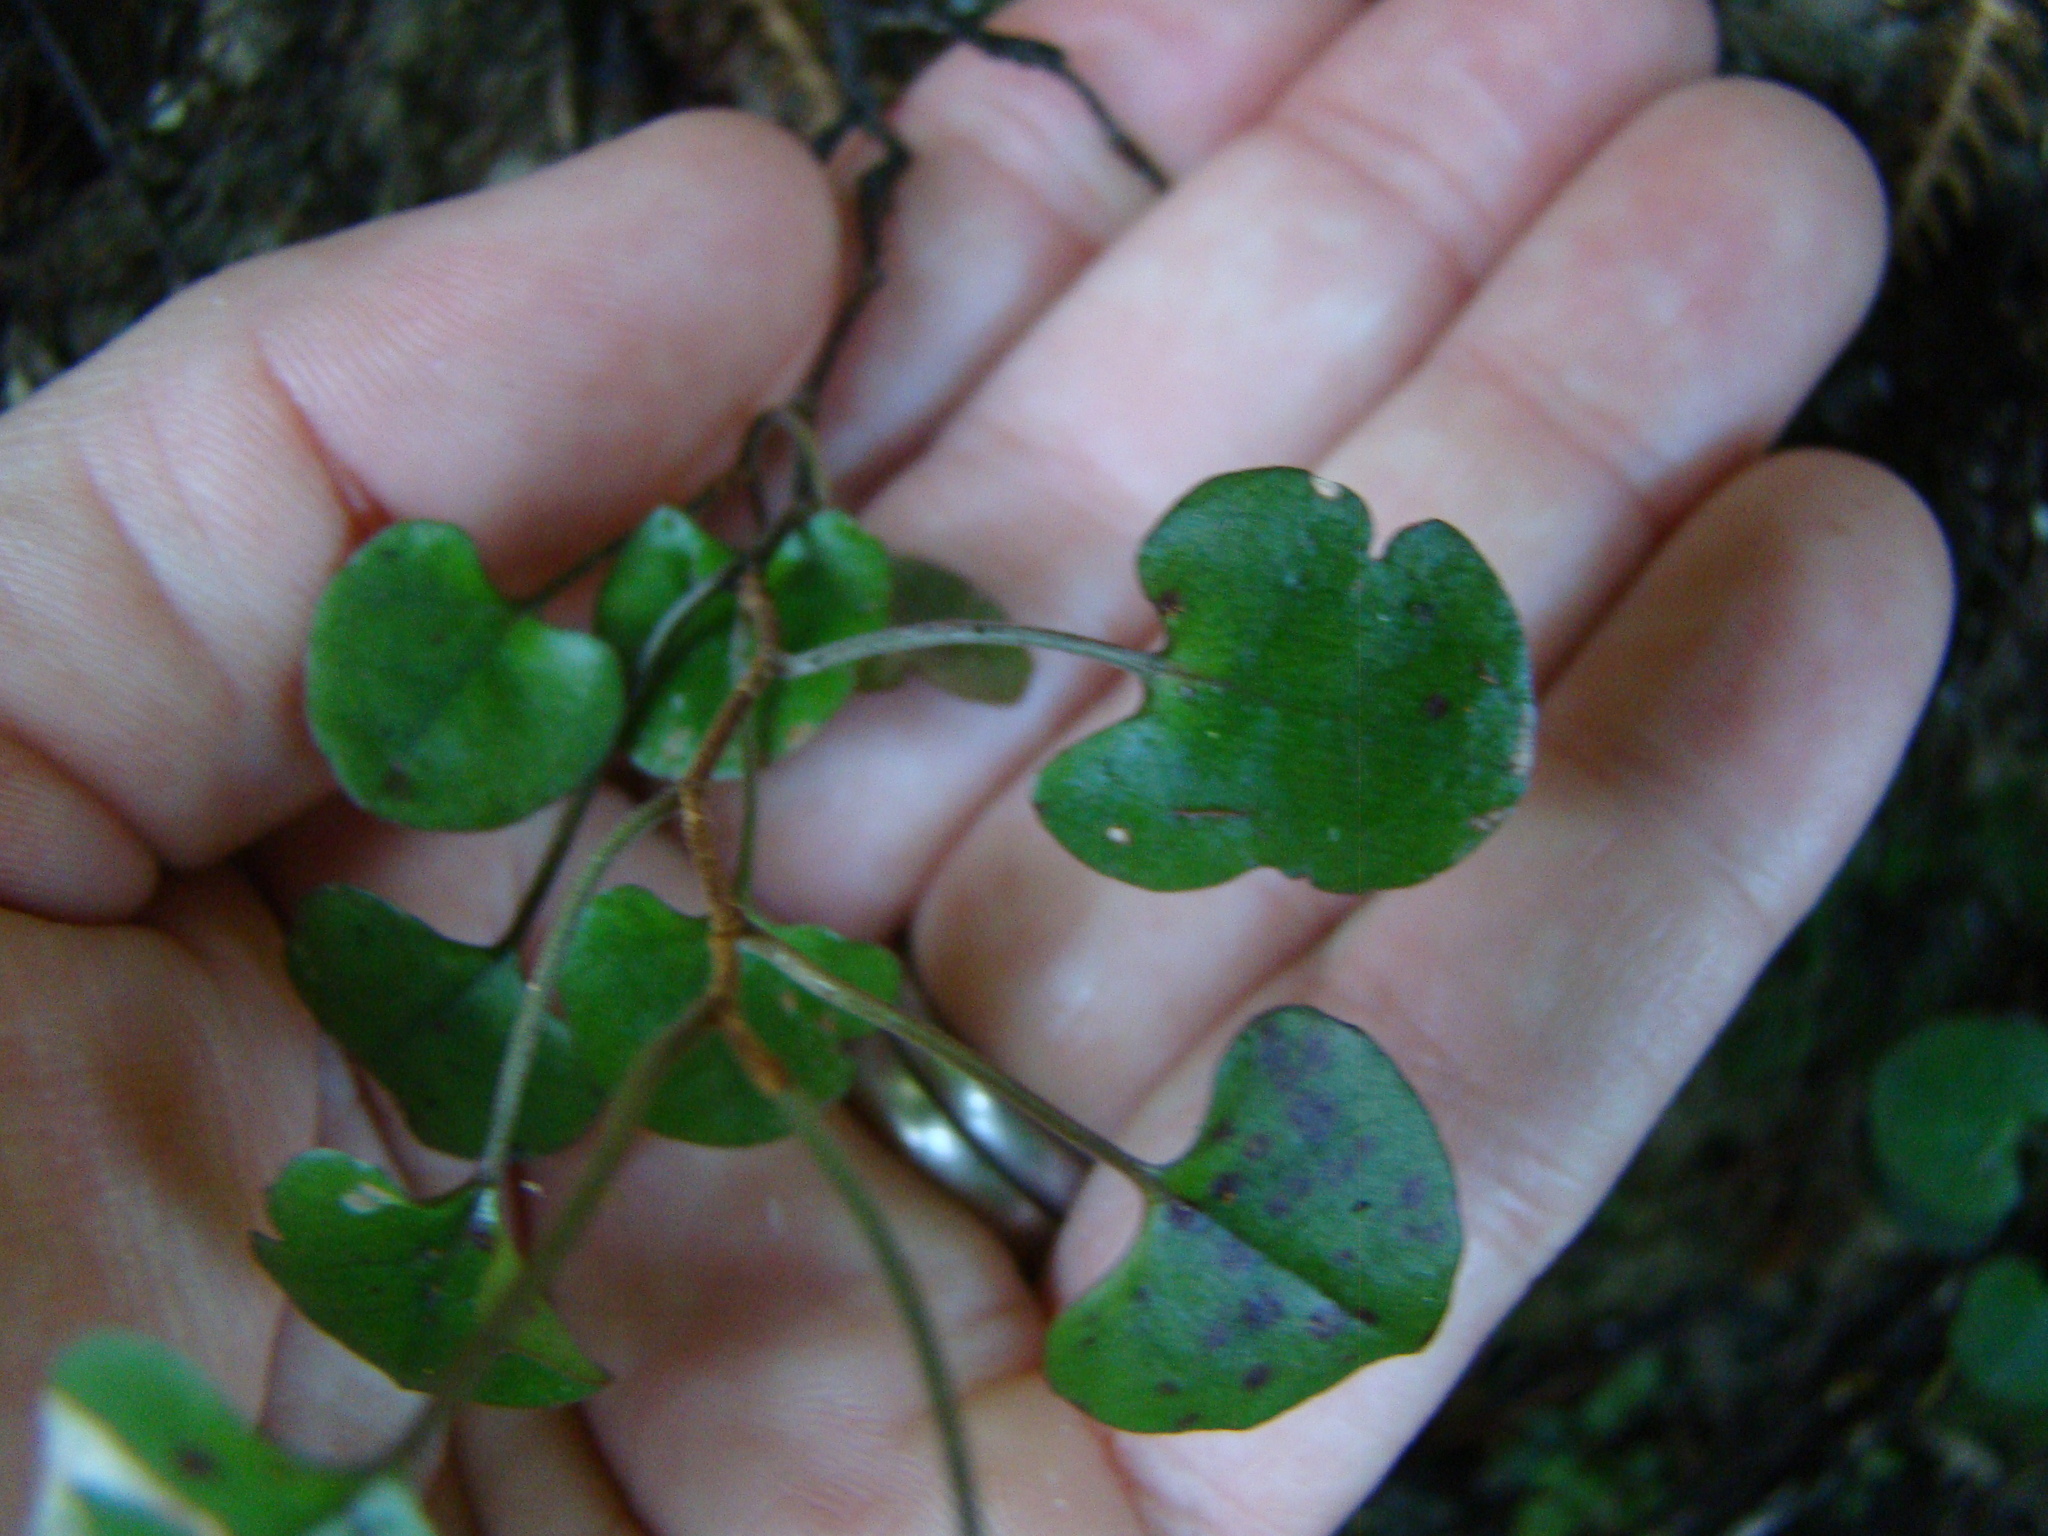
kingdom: Plantae
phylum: Tracheophyta
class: Magnoliopsida
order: Caryophyllales
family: Polygonaceae
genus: Muehlenbeckia
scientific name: Muehlenbeckia australis
